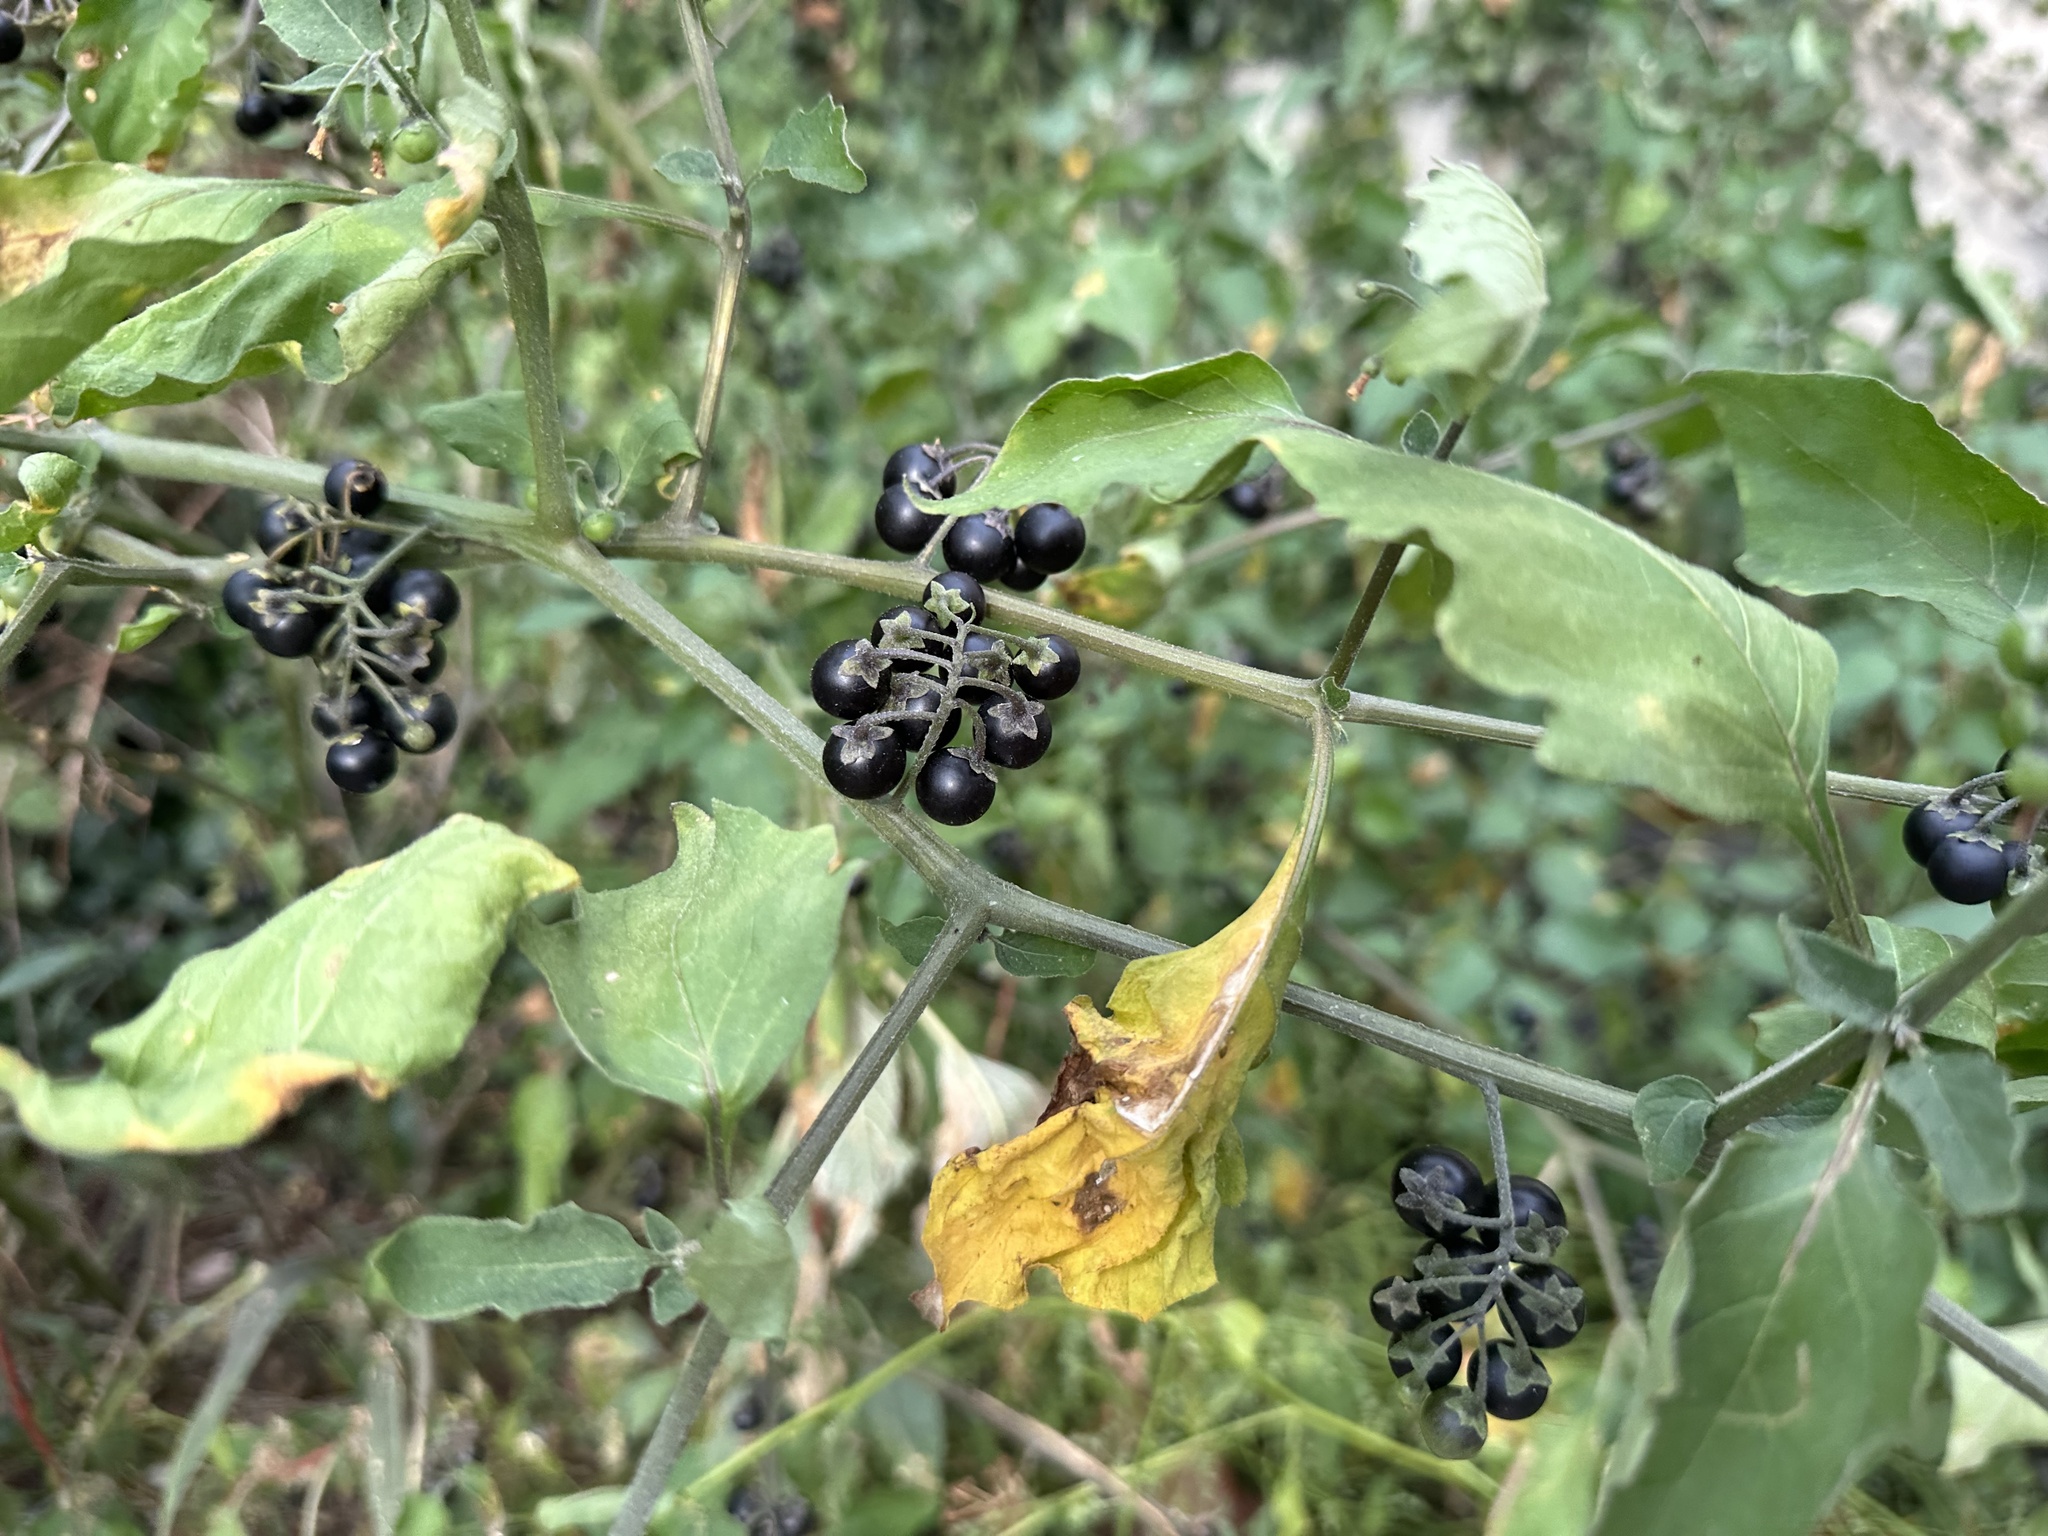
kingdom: Plantae
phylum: Tracheophyta
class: Magnoliopsida
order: Solanales
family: Solanaceae
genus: Solanum
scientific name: Solanum nigrum
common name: Black nightshade
